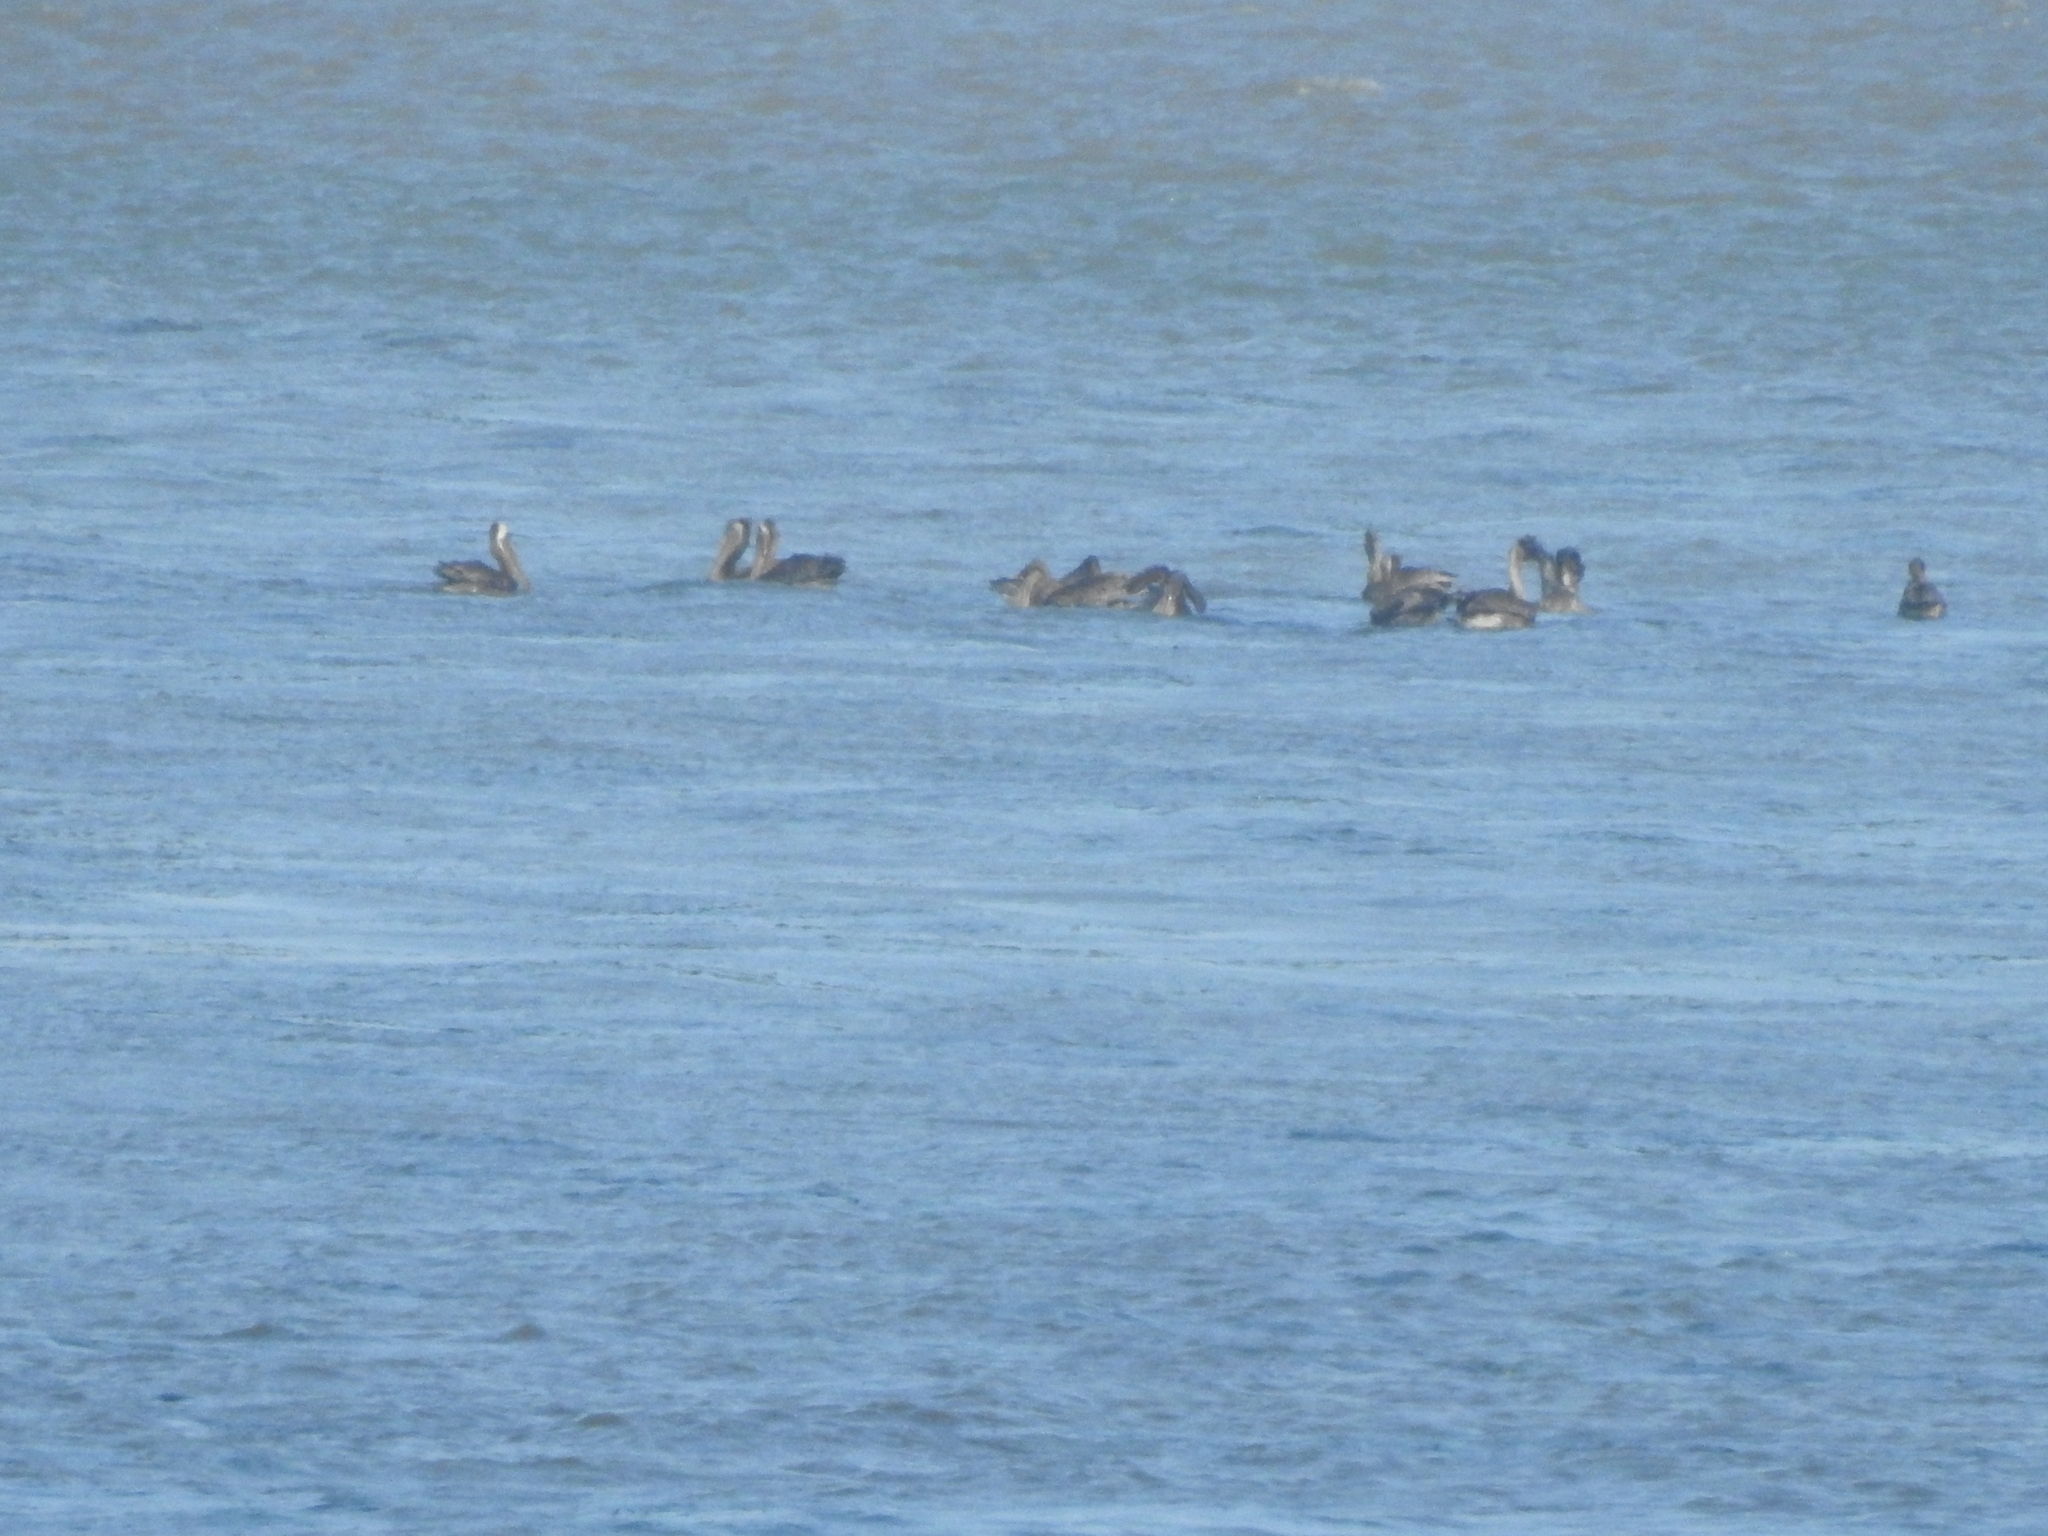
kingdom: Animalia
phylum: Chordata
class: Aves
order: Pelecaniformes
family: Pelecanidae
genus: Pelecanus
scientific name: Pelecanus occidentalis
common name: Brown pelican
